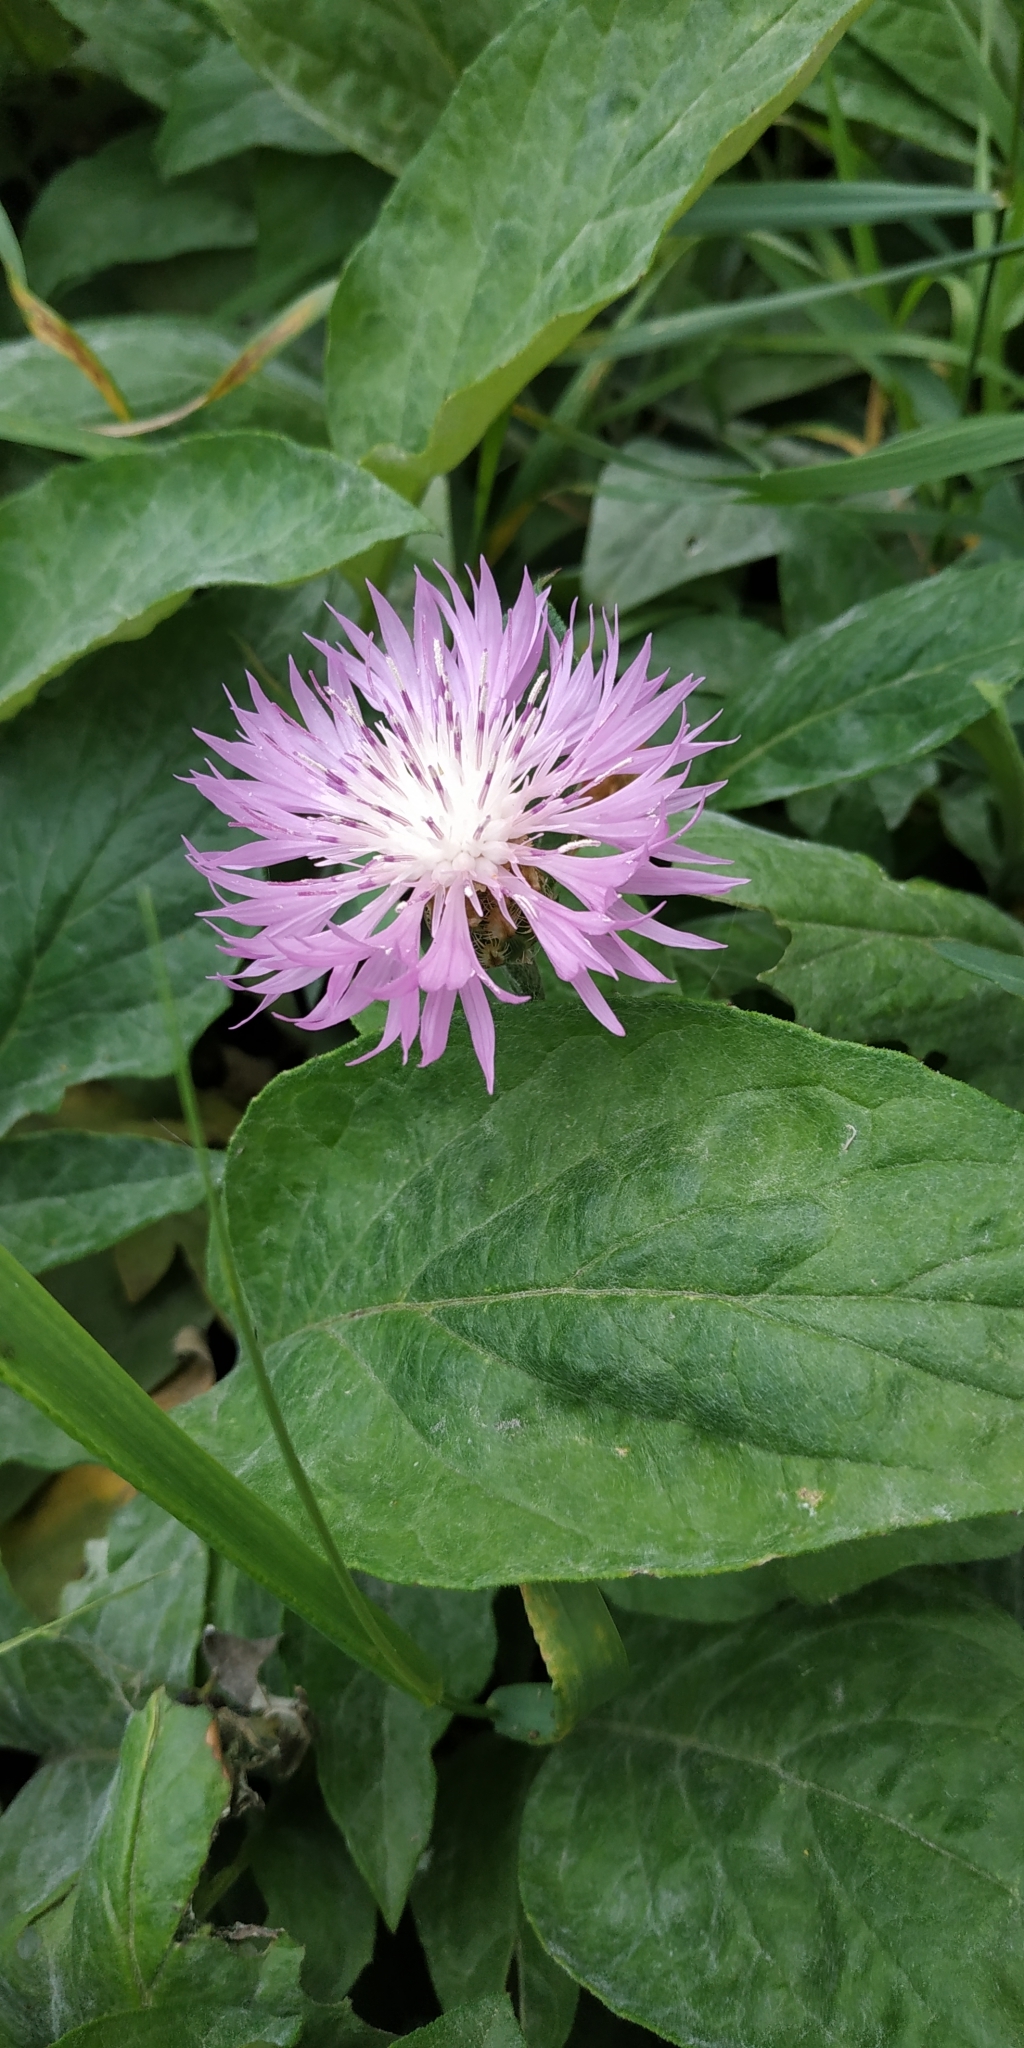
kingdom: Plantae
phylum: Tracheophyta
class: Magnoliopsida
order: Asterales
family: Asteraceae
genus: Psephellus
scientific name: Psephellus dealbatus
